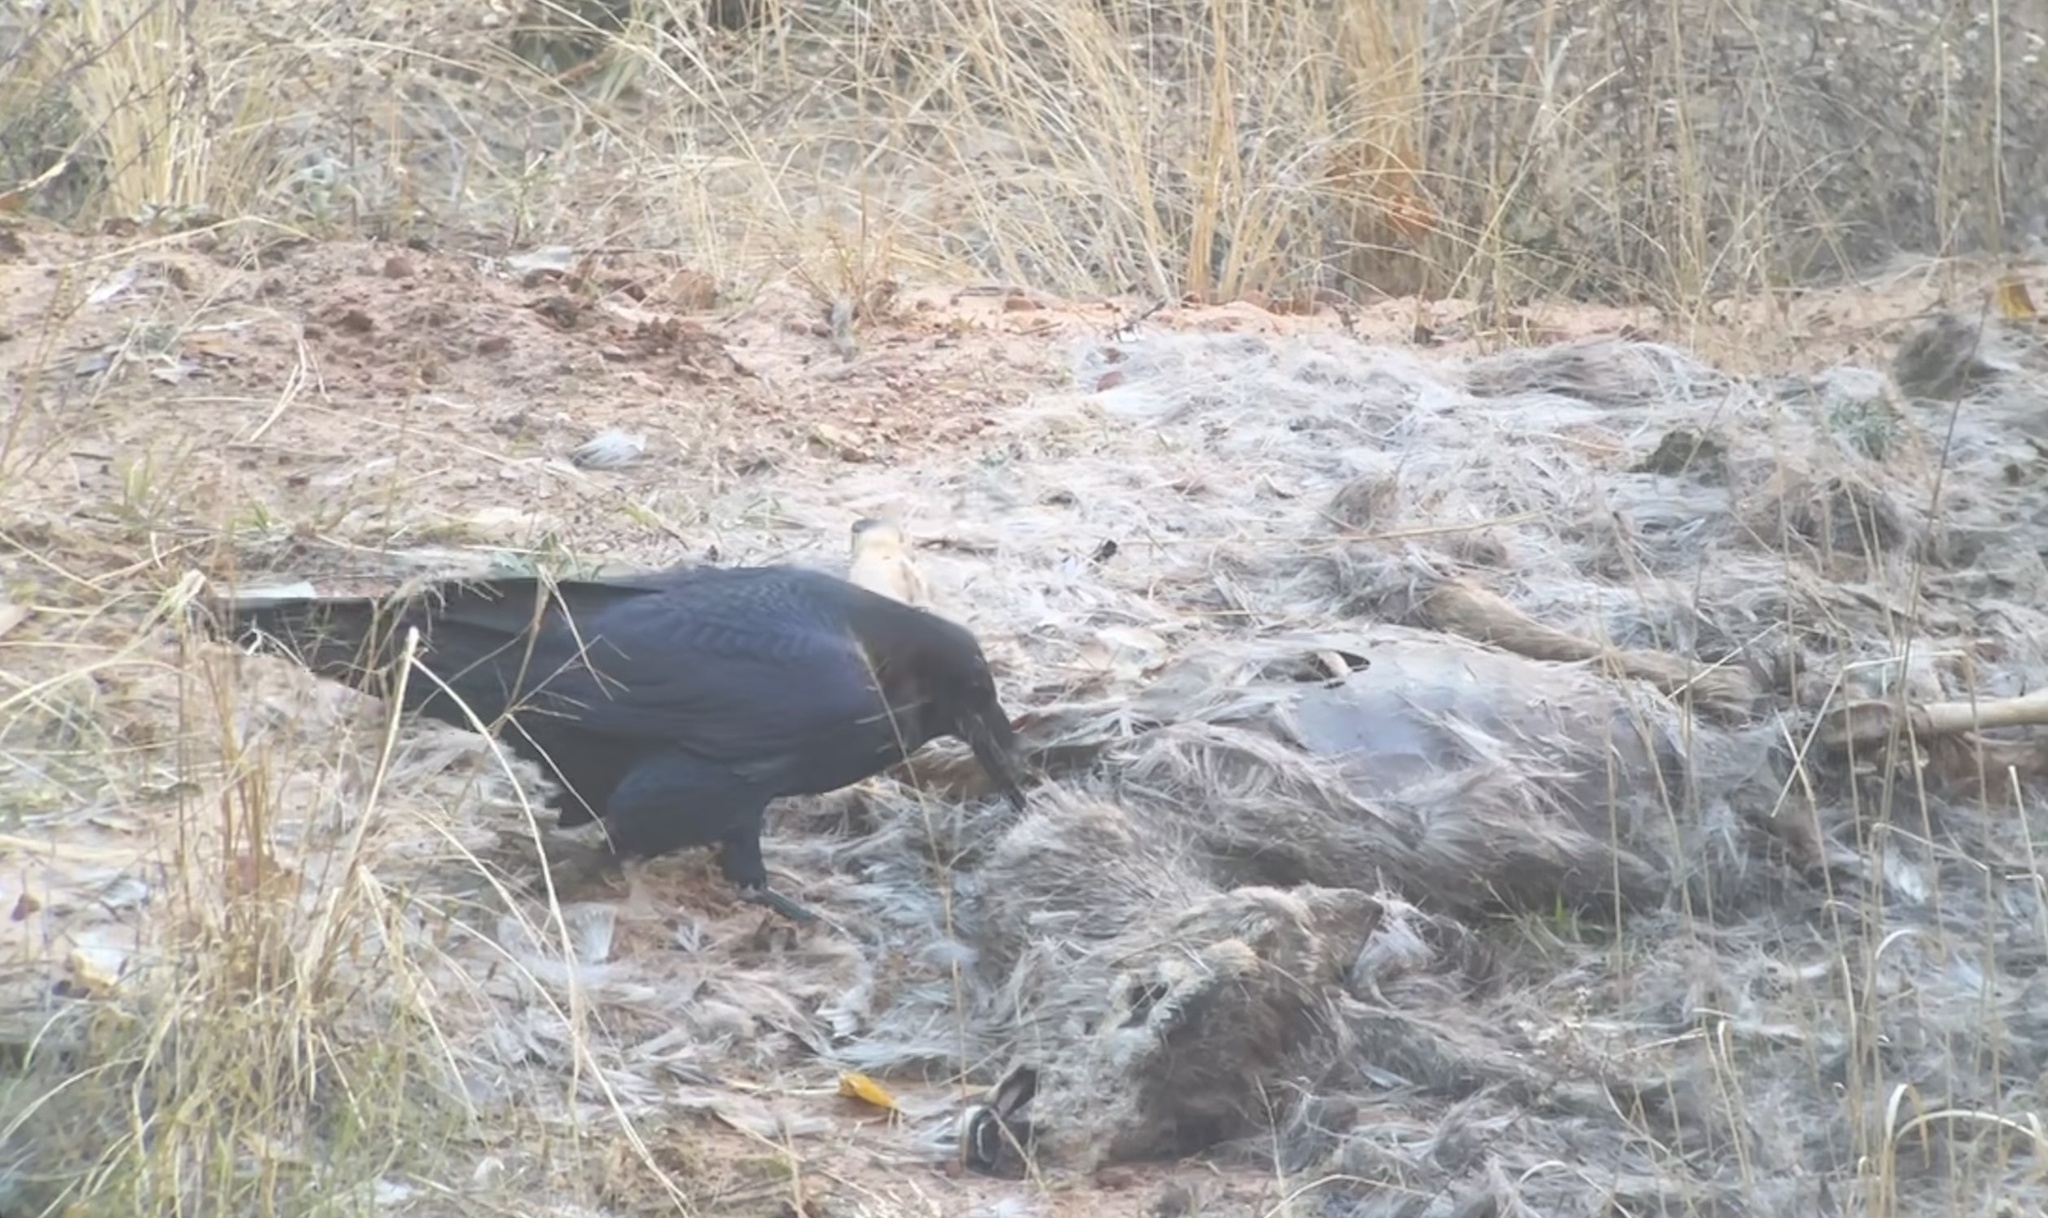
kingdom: Animalia
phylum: Chordata
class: Aves
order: Passeriformes
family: Corvidae
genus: Corvus
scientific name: Corvus corax
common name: Common raven
